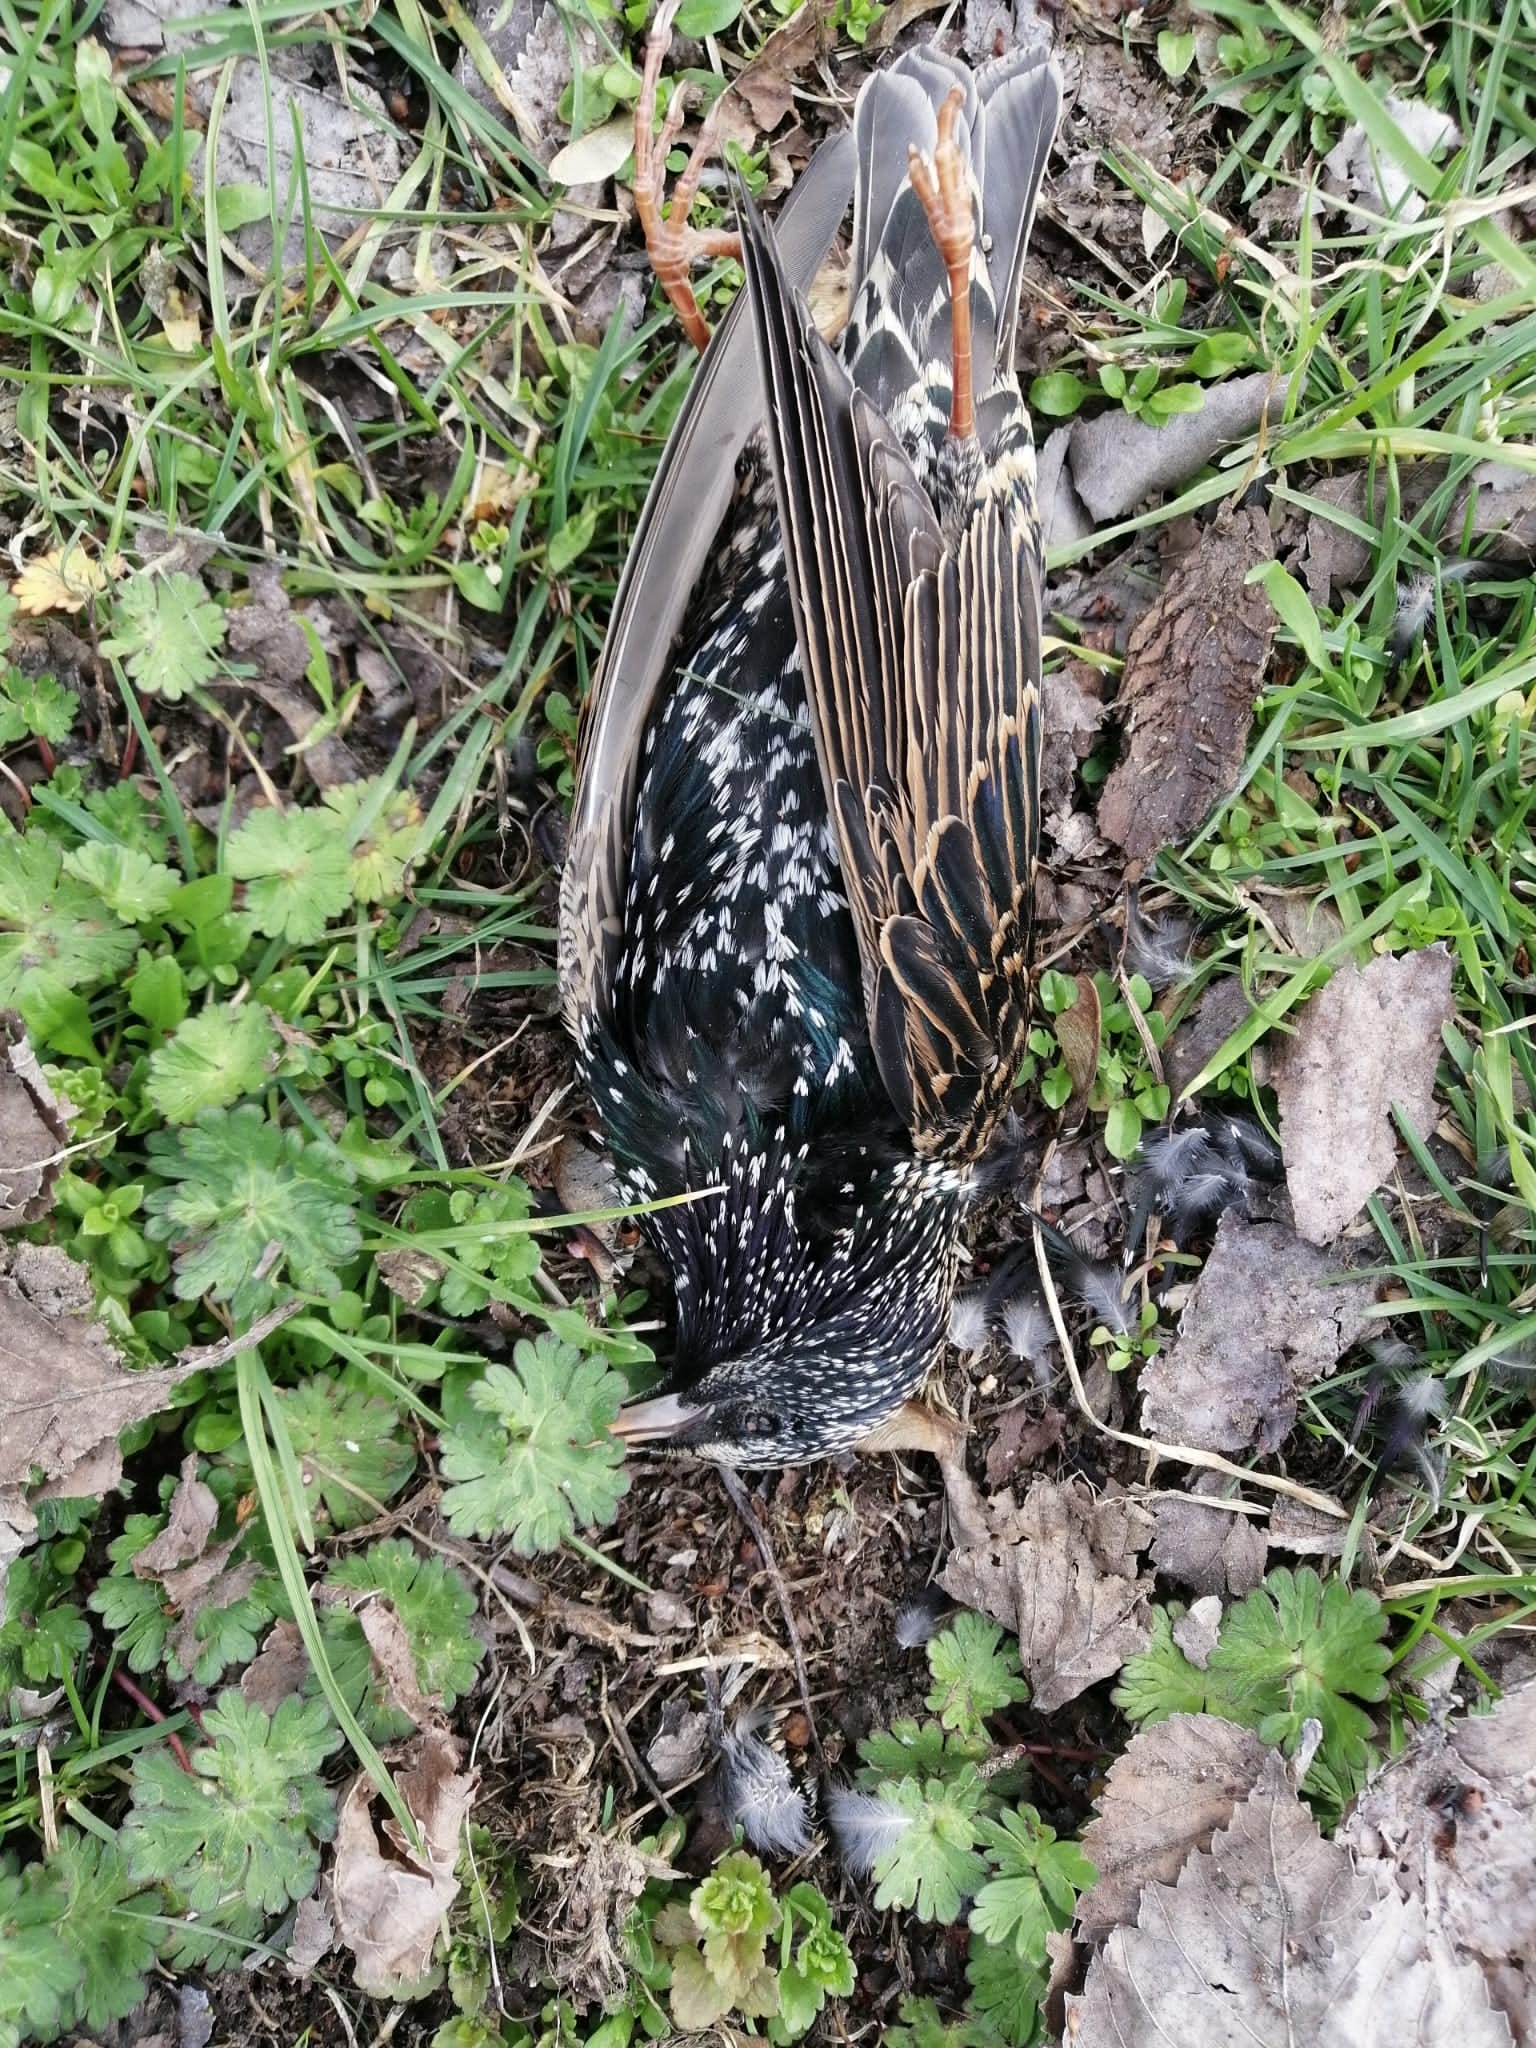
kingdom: Animalia
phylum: Chordata
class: Aves
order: Passeriformes
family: Sturnidae
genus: Sturnus
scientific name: Sturnus vulgaris
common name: Common starling
